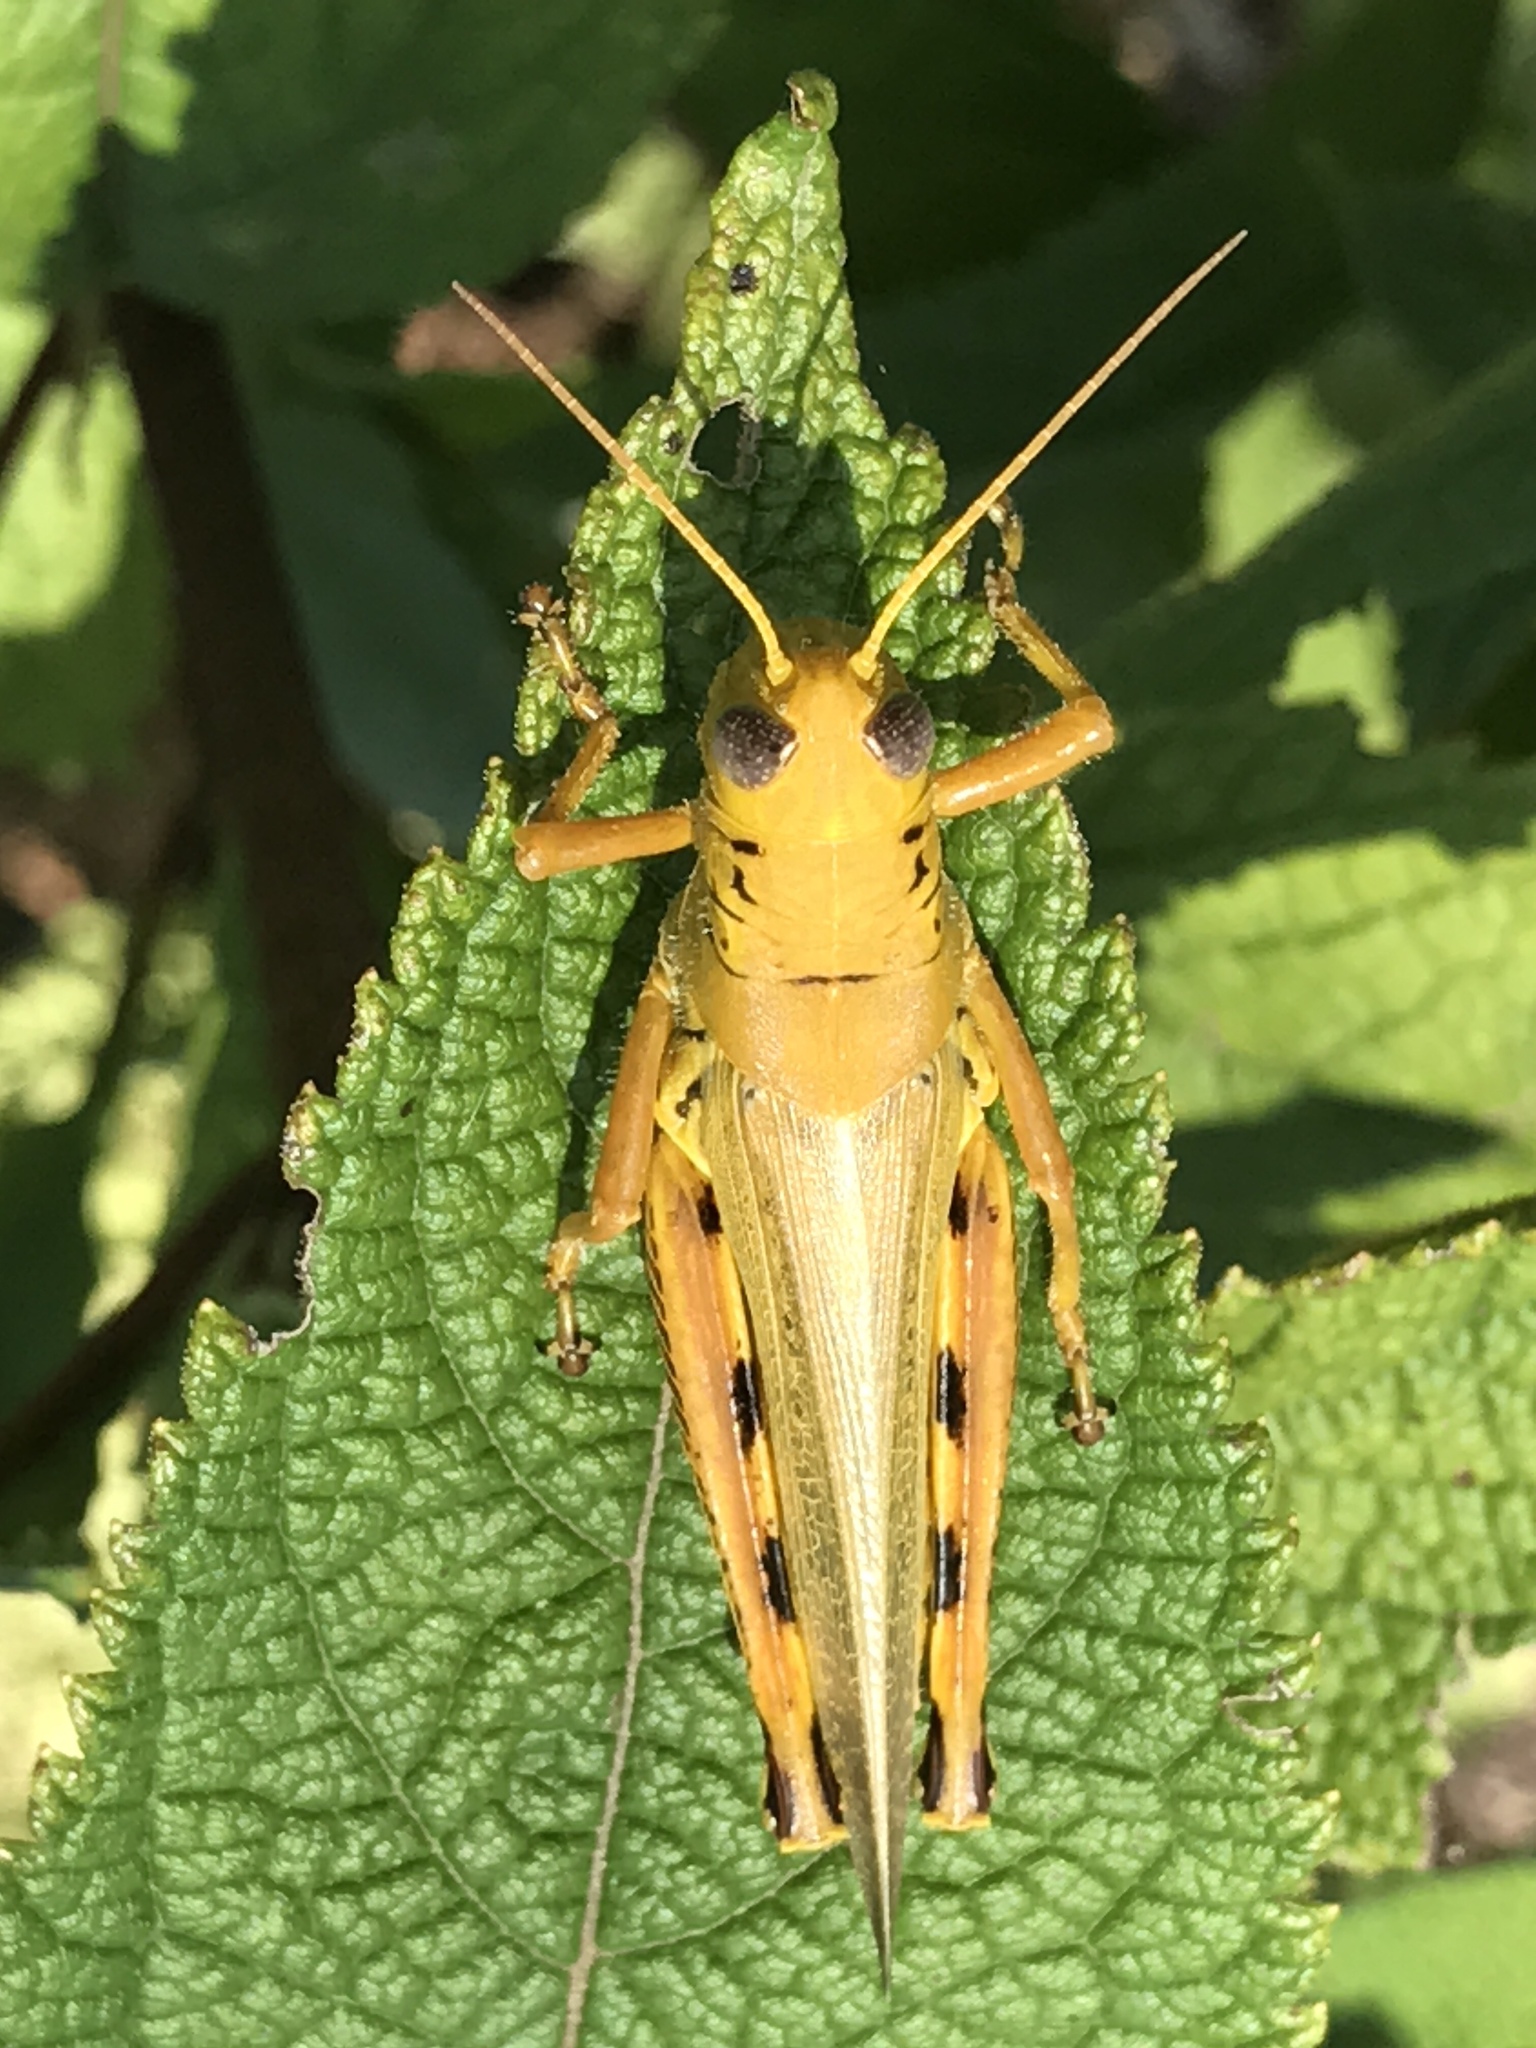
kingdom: Animalia
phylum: Arthropoda
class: Insecta
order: Orthoptera
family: Acrididae
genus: Melanoplus
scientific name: Melanoplus differentialis
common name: Differential grasshopper
